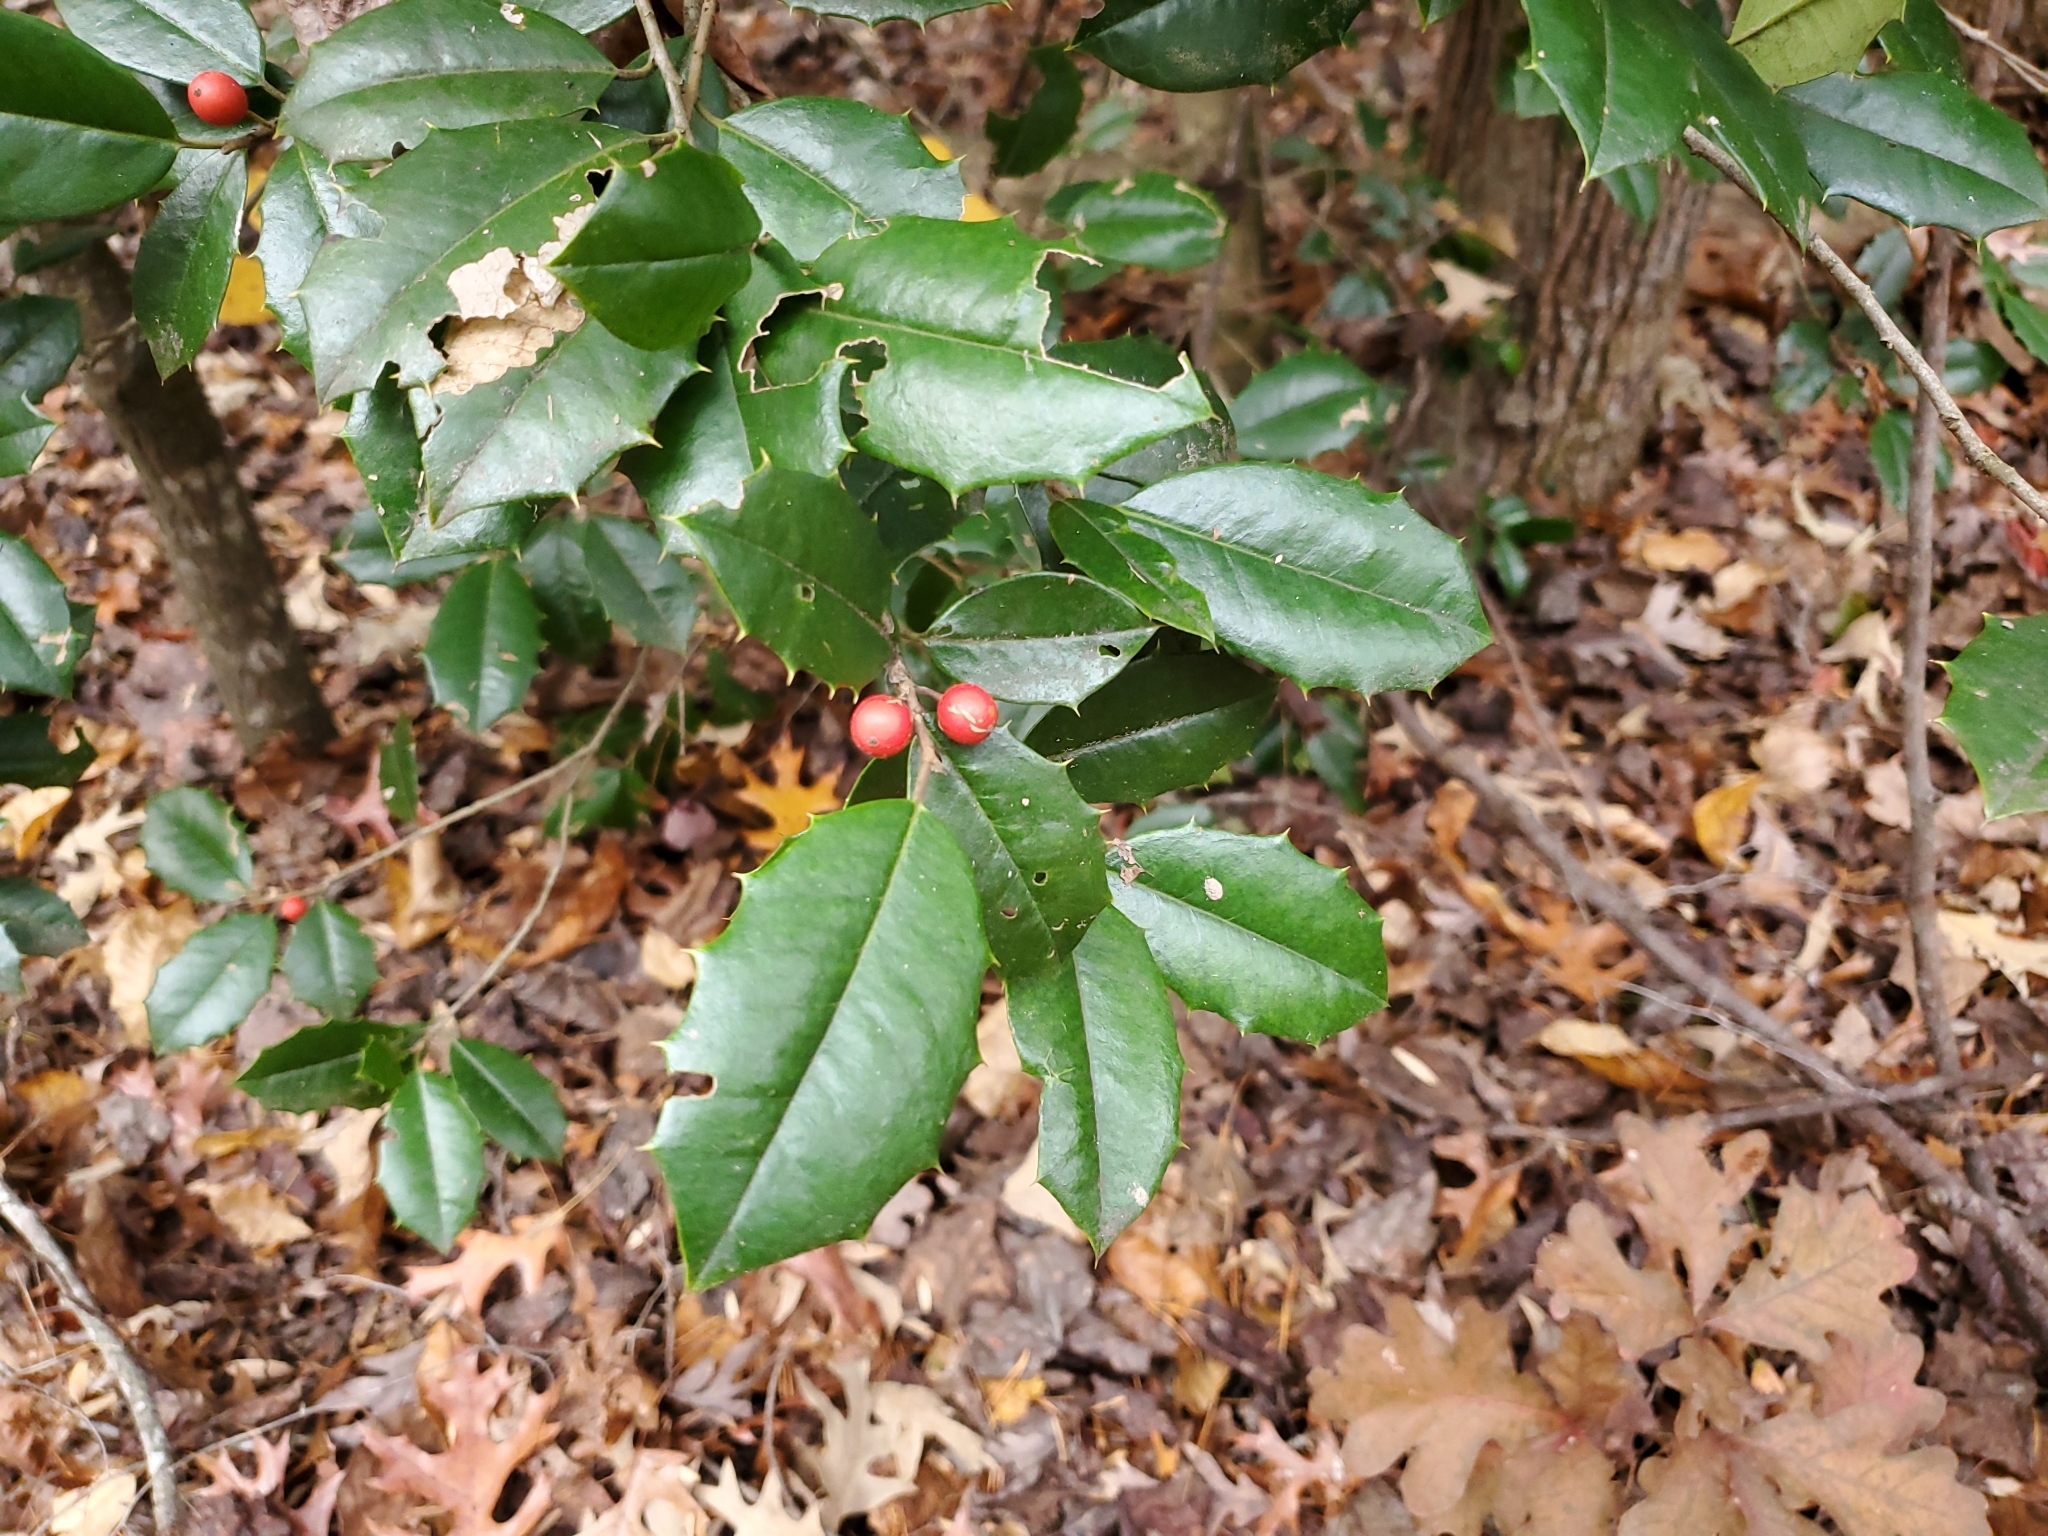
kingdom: Plantae
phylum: Tracheophyta
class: Magnoliopsida
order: Aquifoliales
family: Aquifoliaceae
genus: Ilex
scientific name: Ilex opaca
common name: American holly
